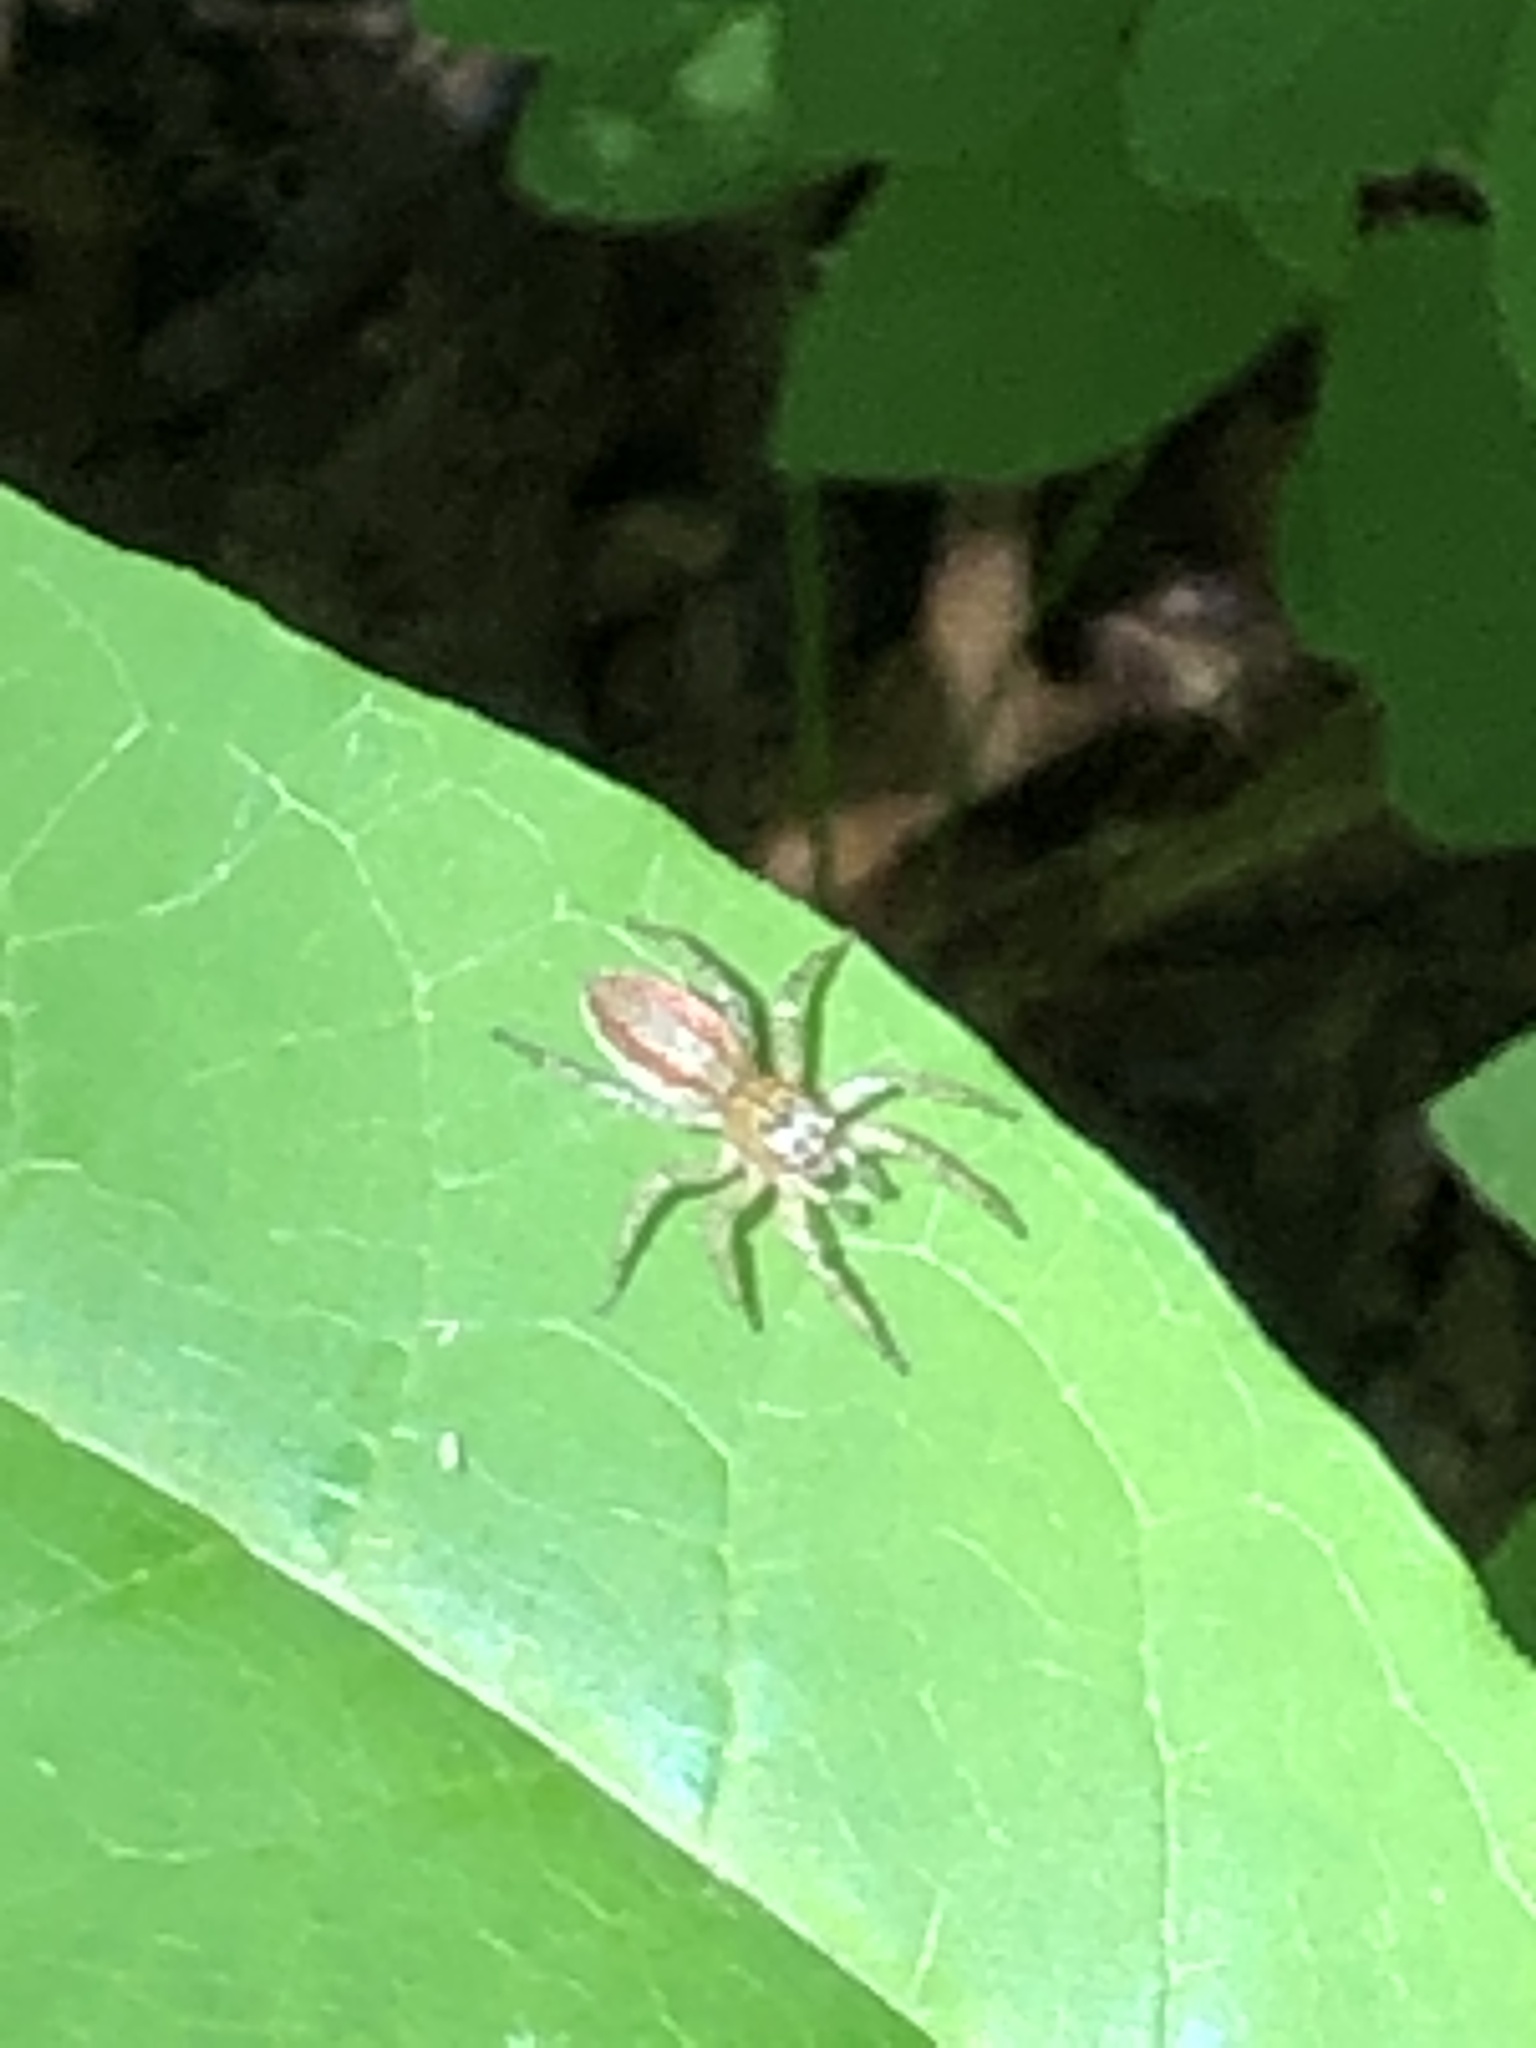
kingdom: Animalia
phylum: Arthropoda
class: Arachnida
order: Araneae
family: Salticidae
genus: Maevia
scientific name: Maevia inclemens
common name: Dimorphic jumper
